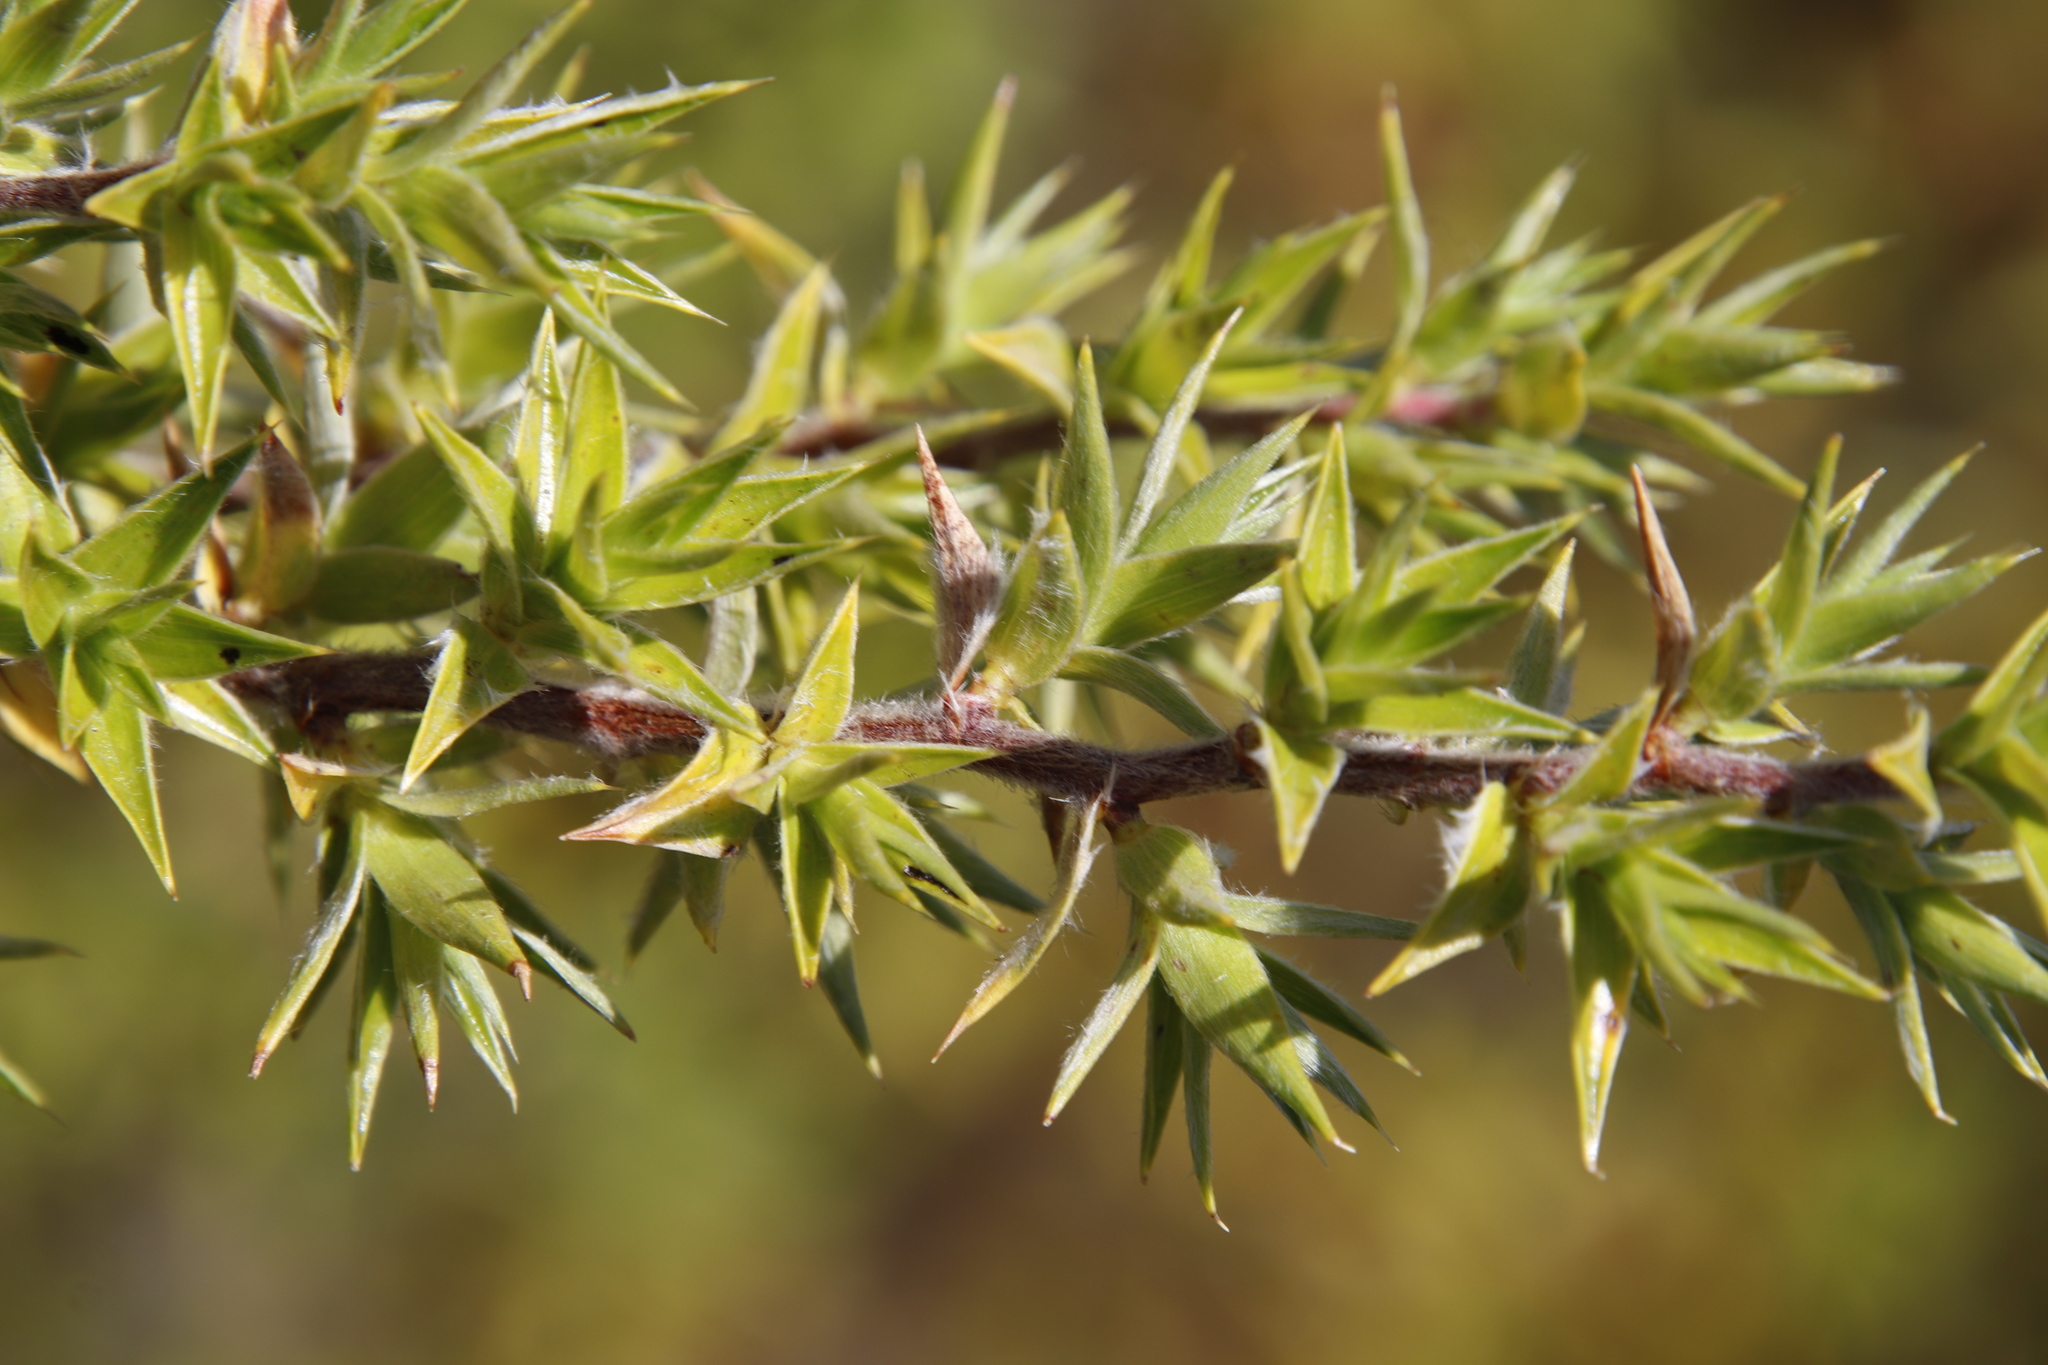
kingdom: Plantae
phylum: Tracheophyta
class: Magnoliopsida
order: Rosales
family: Rosaceae
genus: Cliffortia
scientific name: Cliffortia ruscifolia
